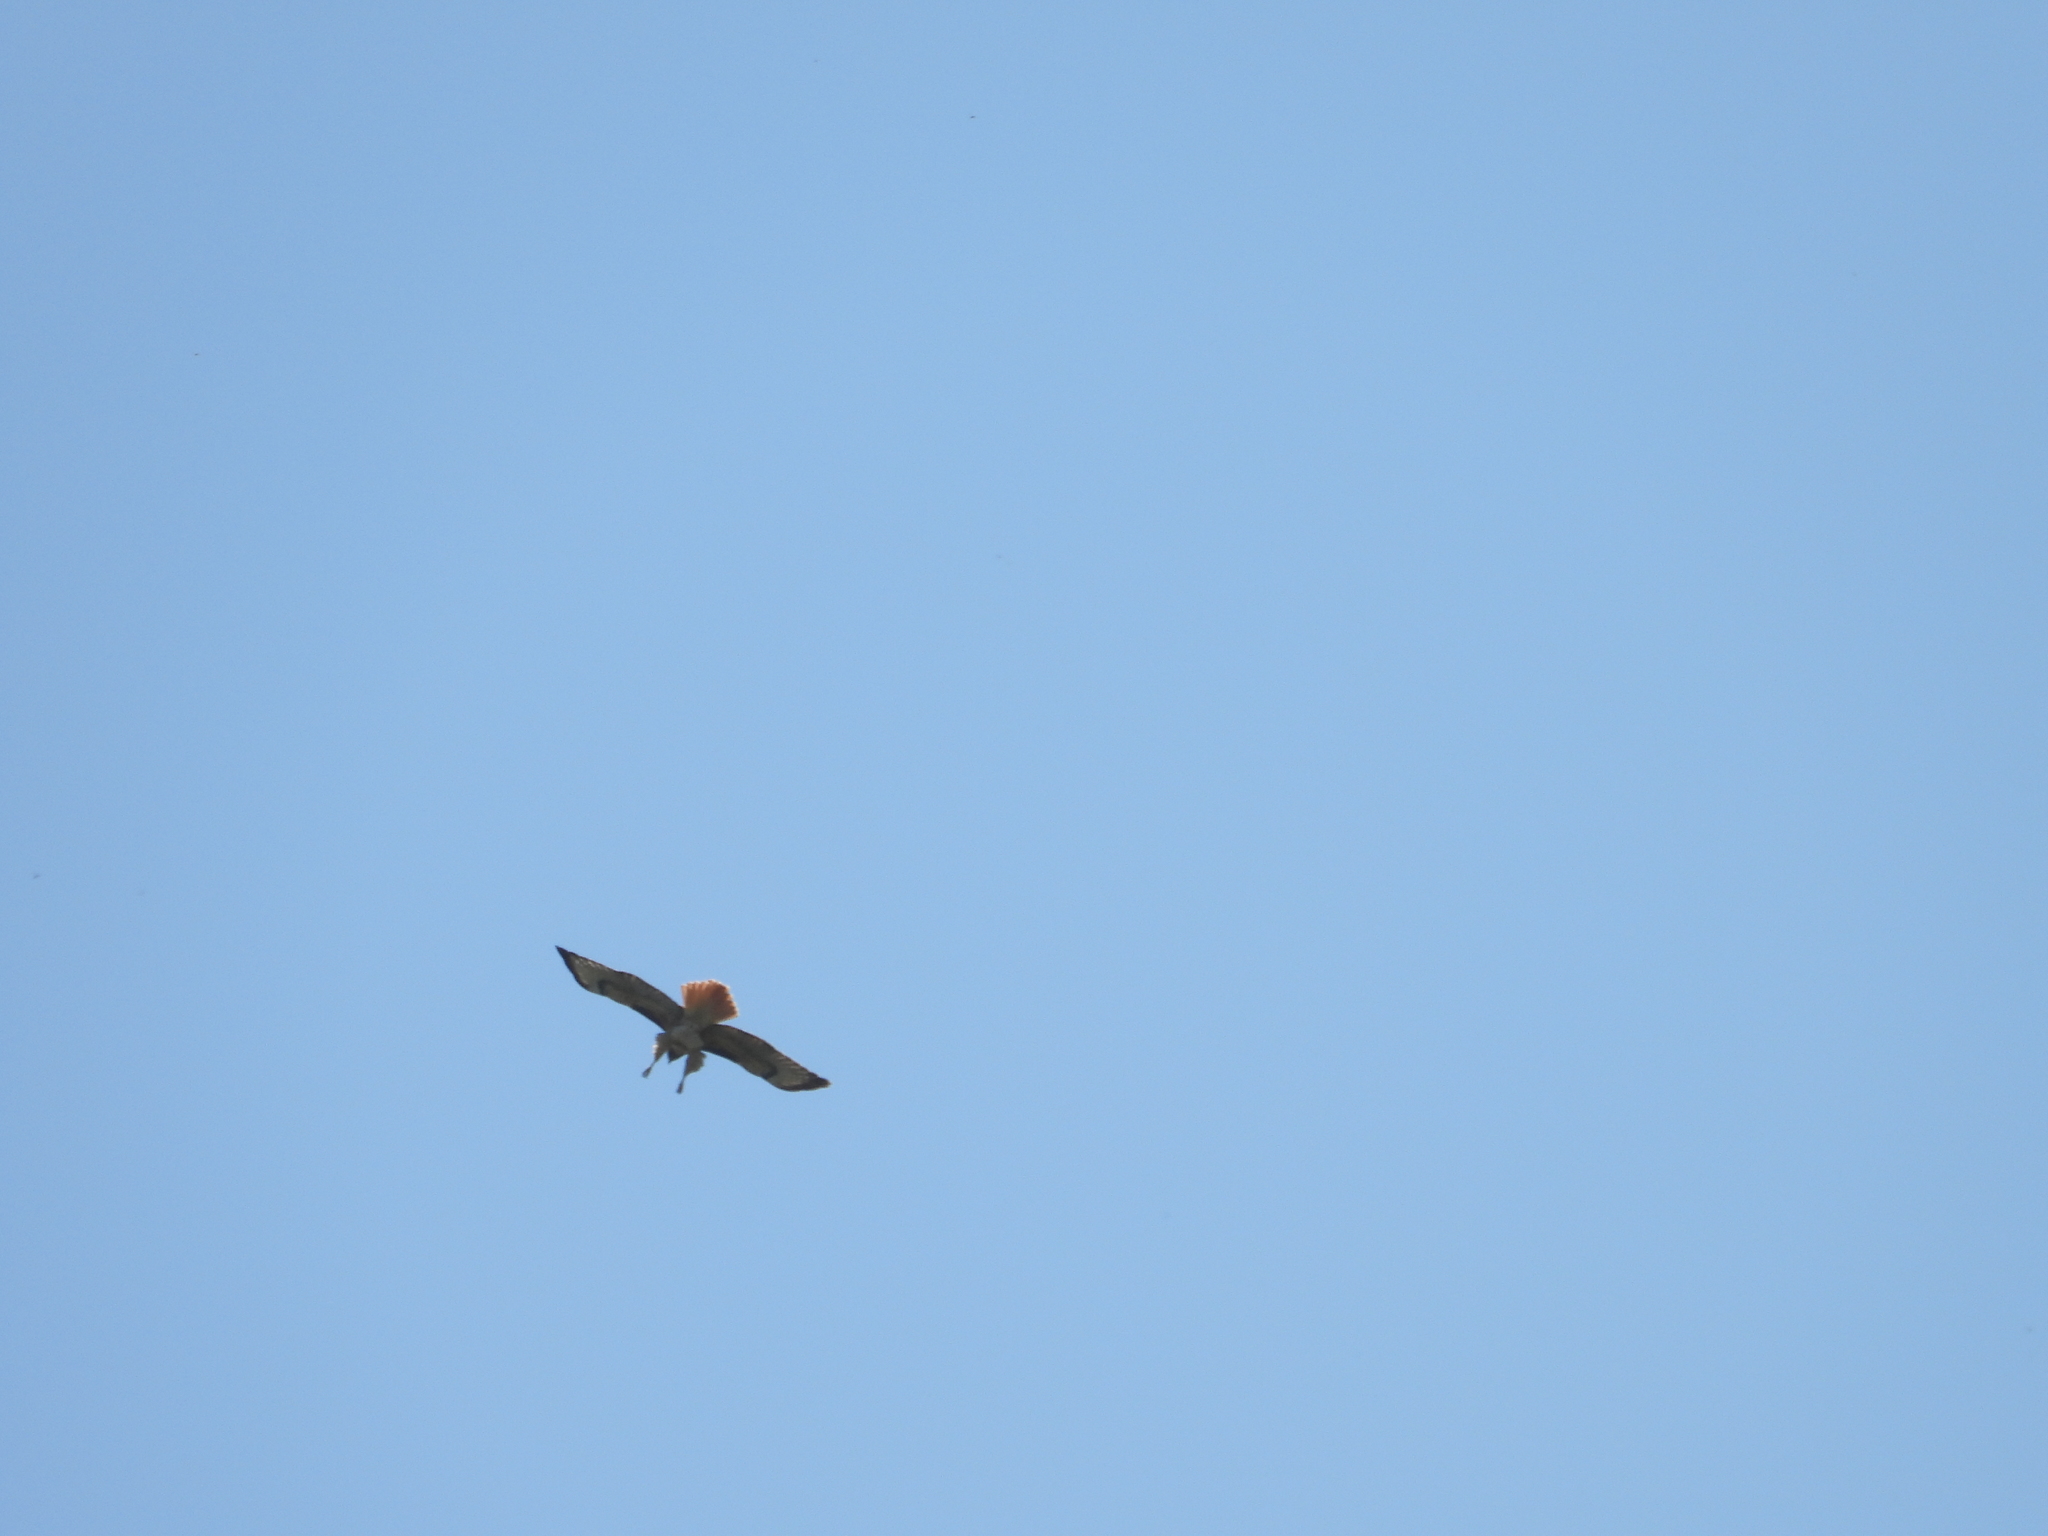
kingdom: Animalia
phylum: Chordata
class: Aves
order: Accipitriformes
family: Accipitridae
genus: Buteo
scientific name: Buteo jamaicensis
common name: Red-tailed hawk
